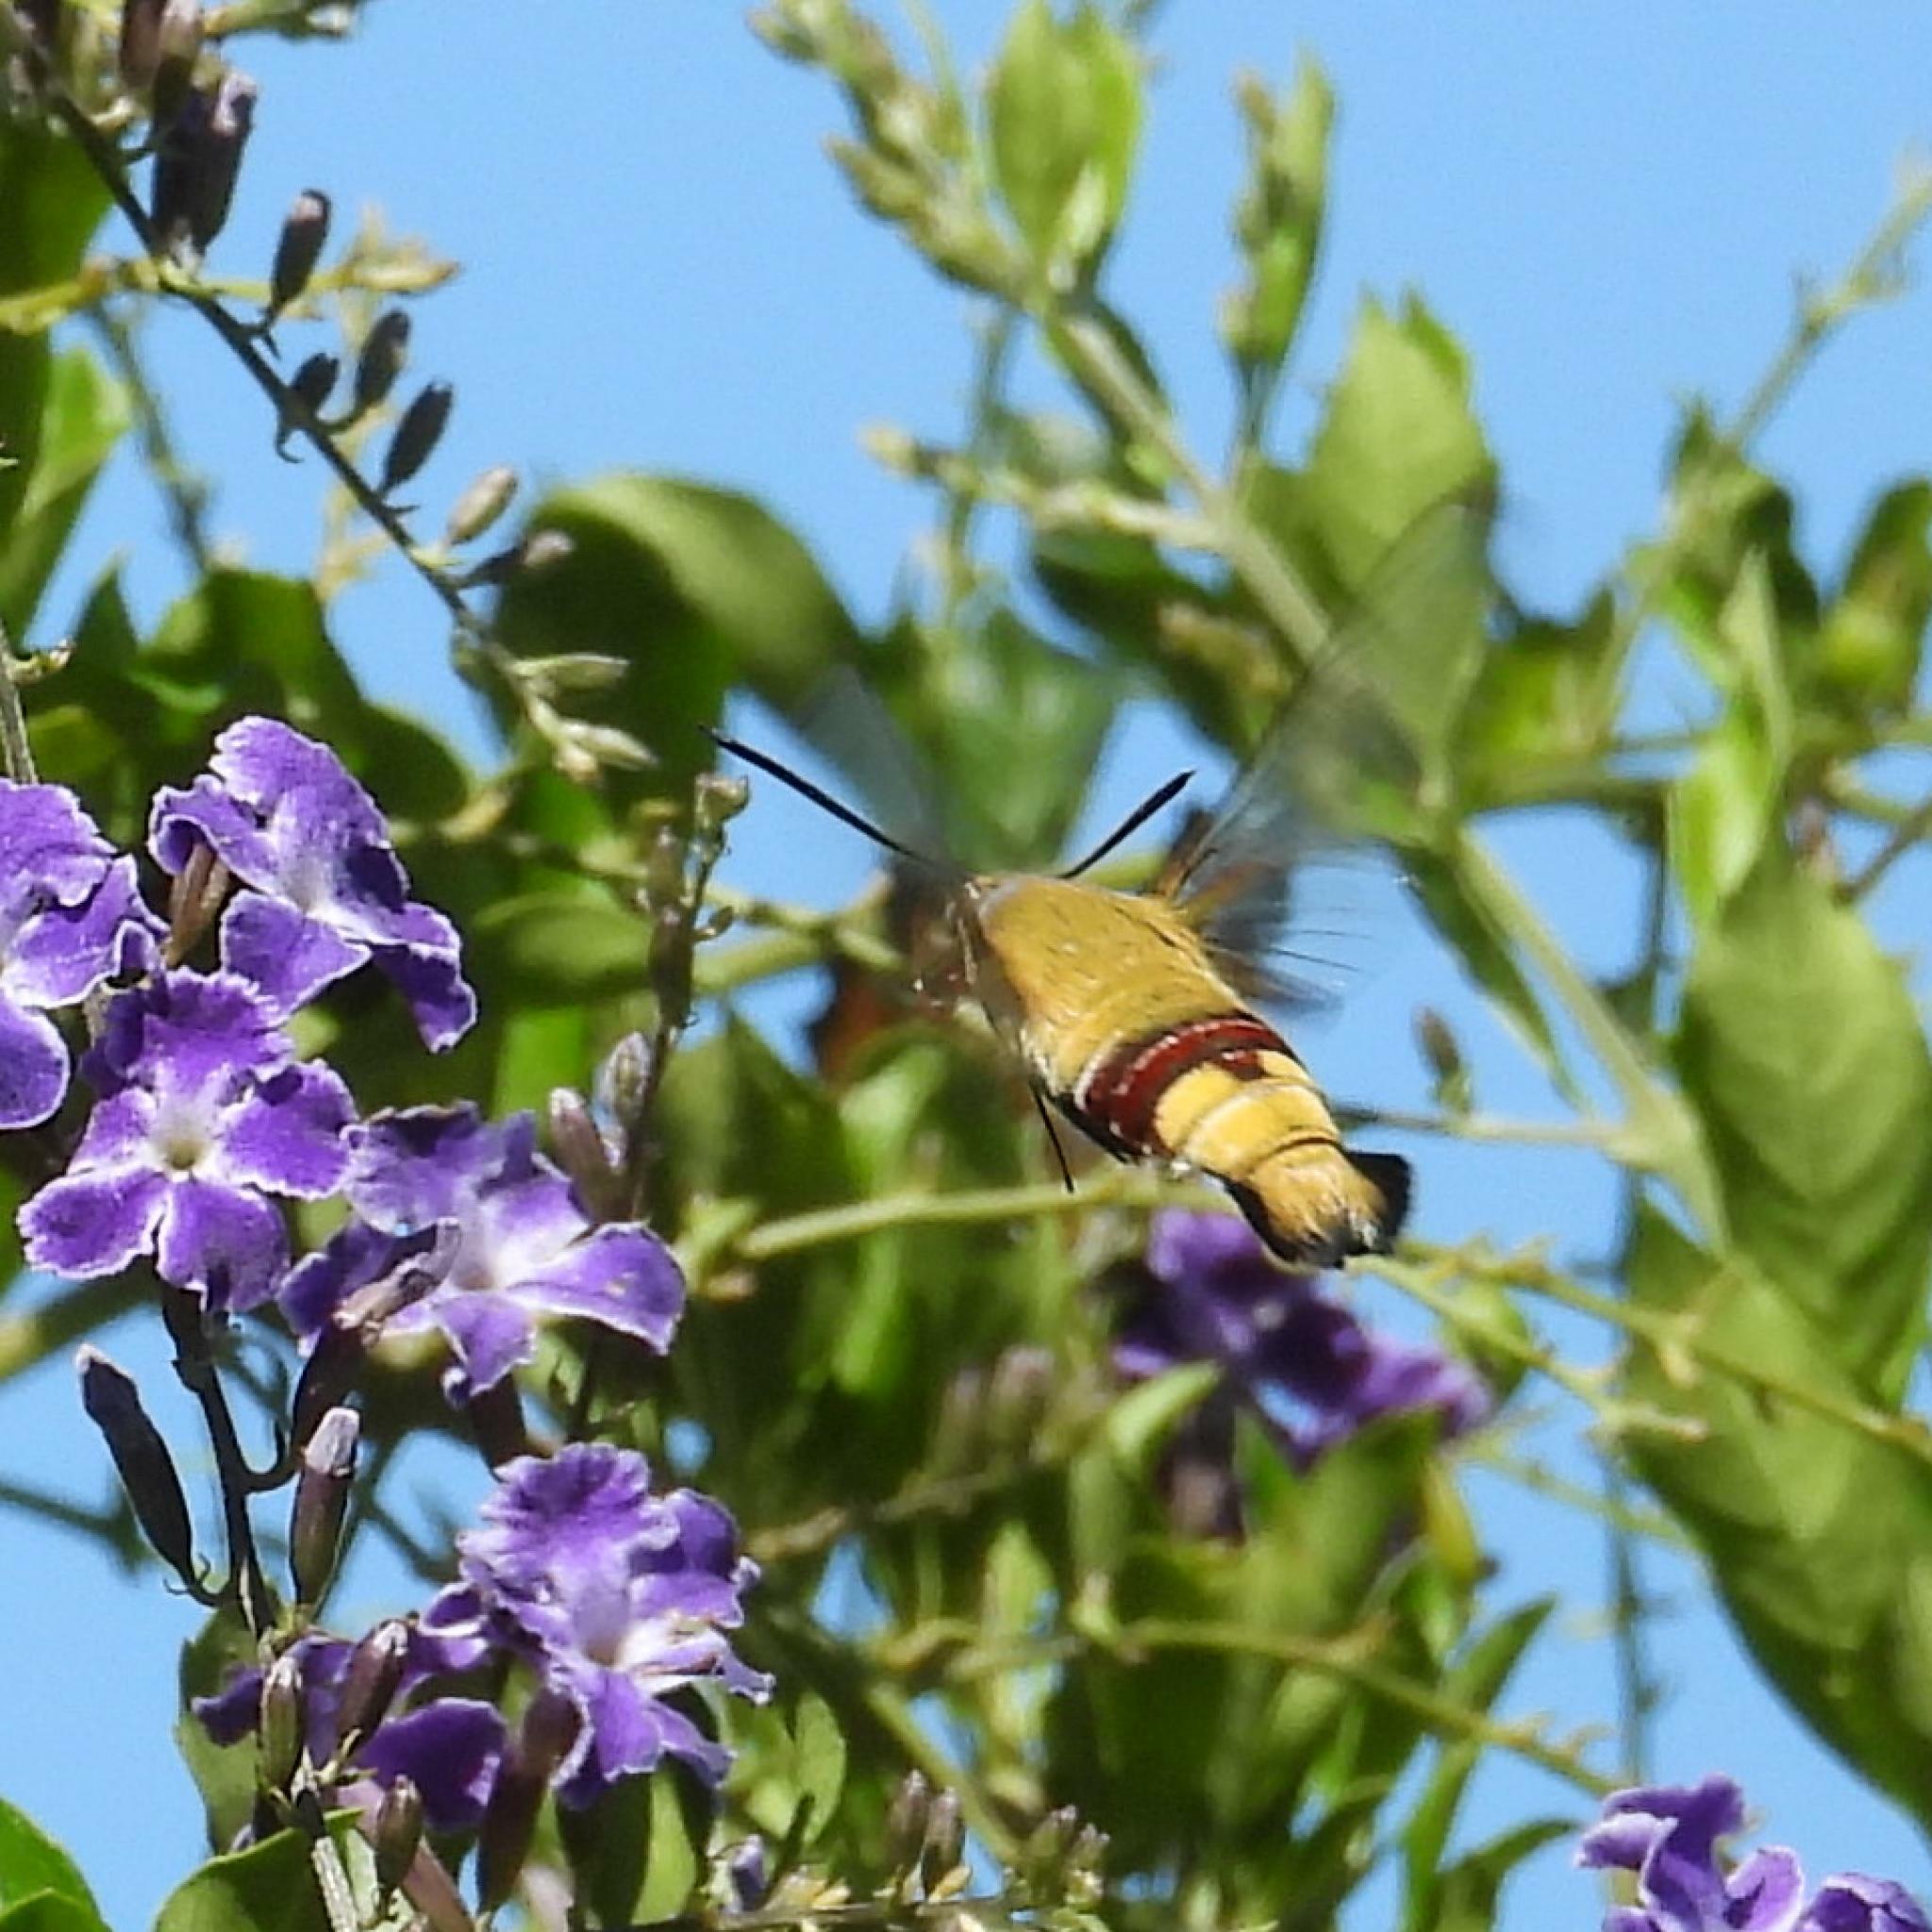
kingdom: Animalia
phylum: Arthropoda
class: Insecta
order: Lepidoptera
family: Sphingidae
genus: Cephonodes
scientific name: Cephonodes hylas
